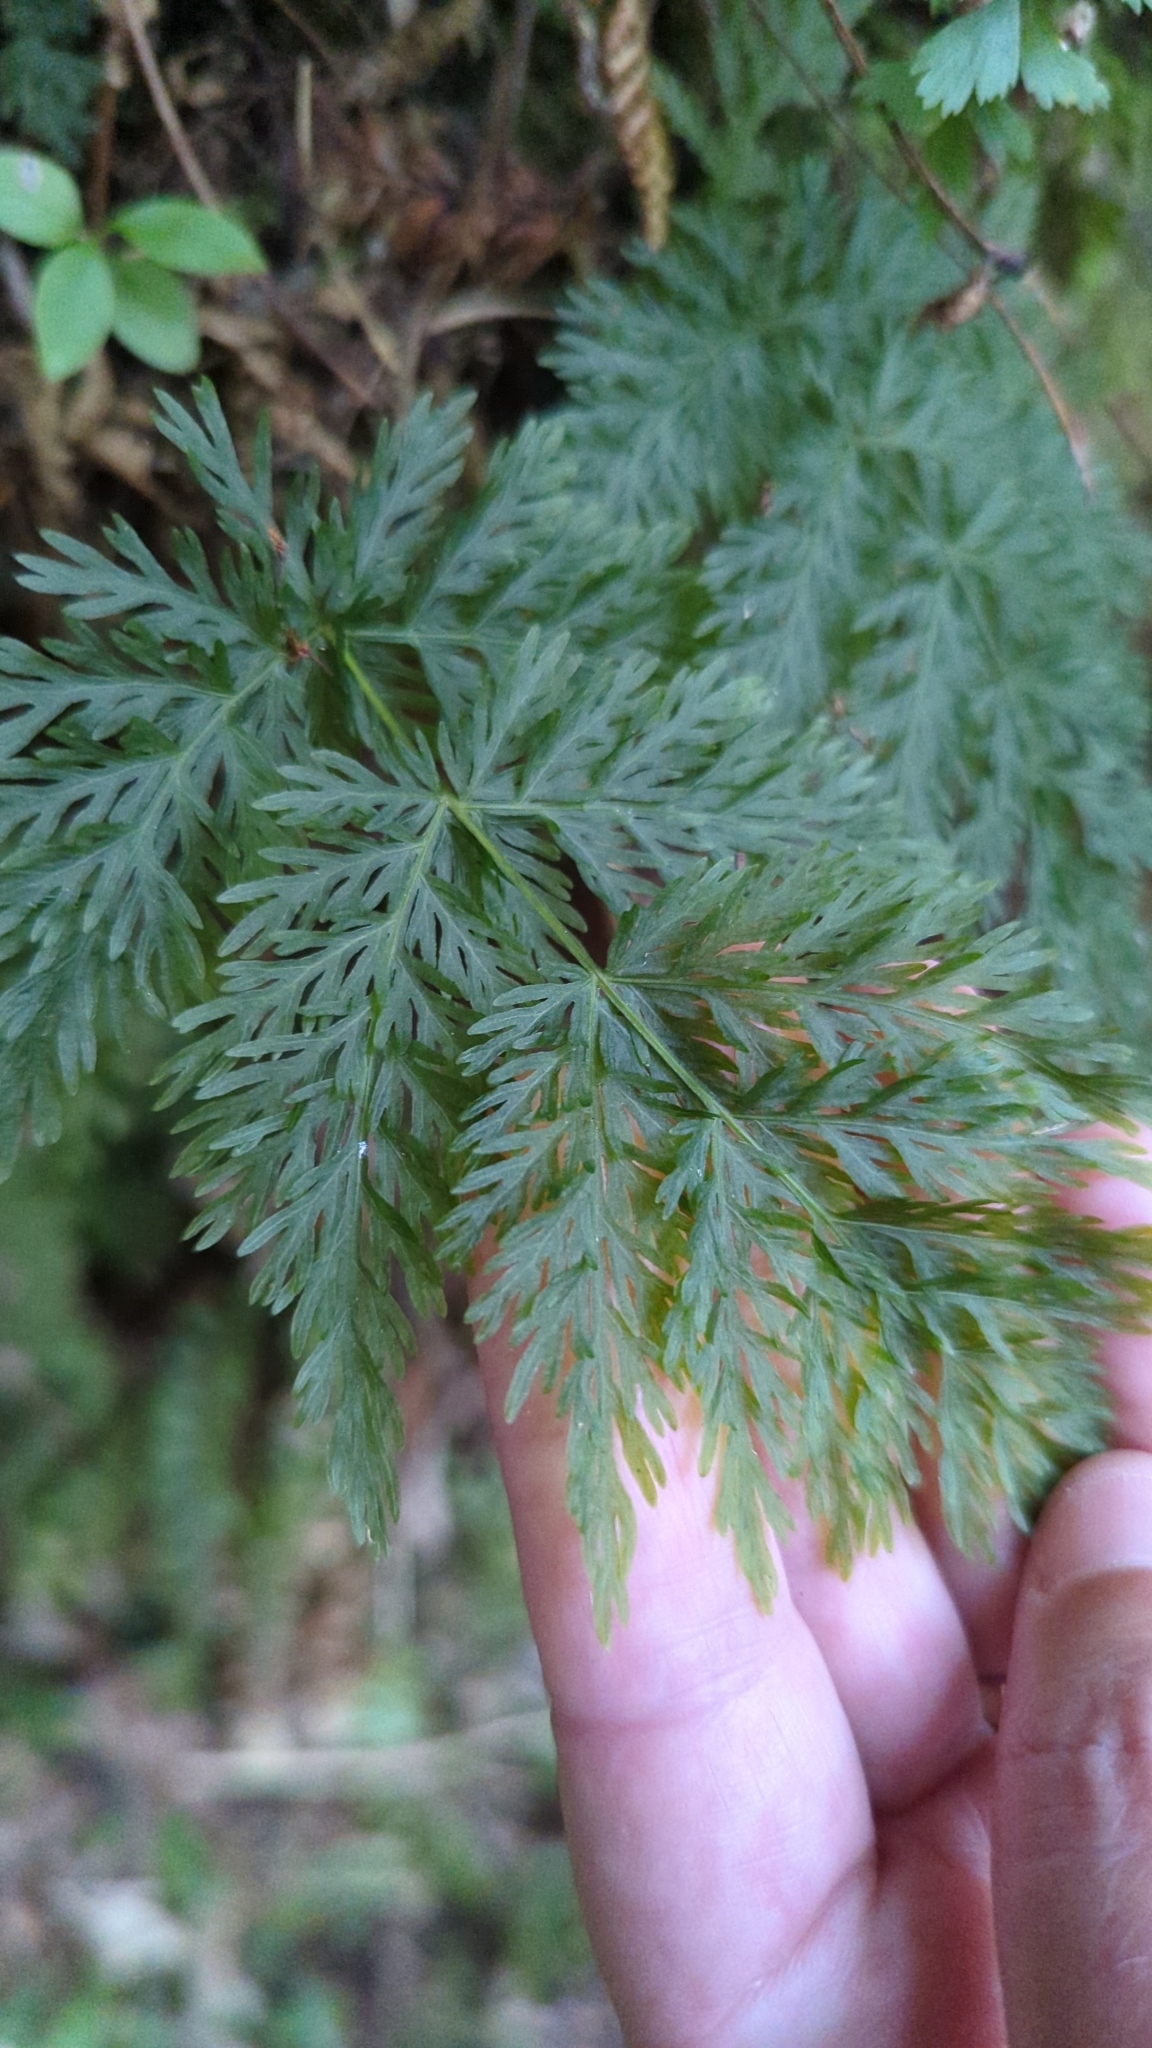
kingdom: Plantae
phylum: Tracheophyta
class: Polypodiopsida
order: Osmundales
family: Osmundaceae
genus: Leptopteris
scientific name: Leptopteris hymenophylloides
